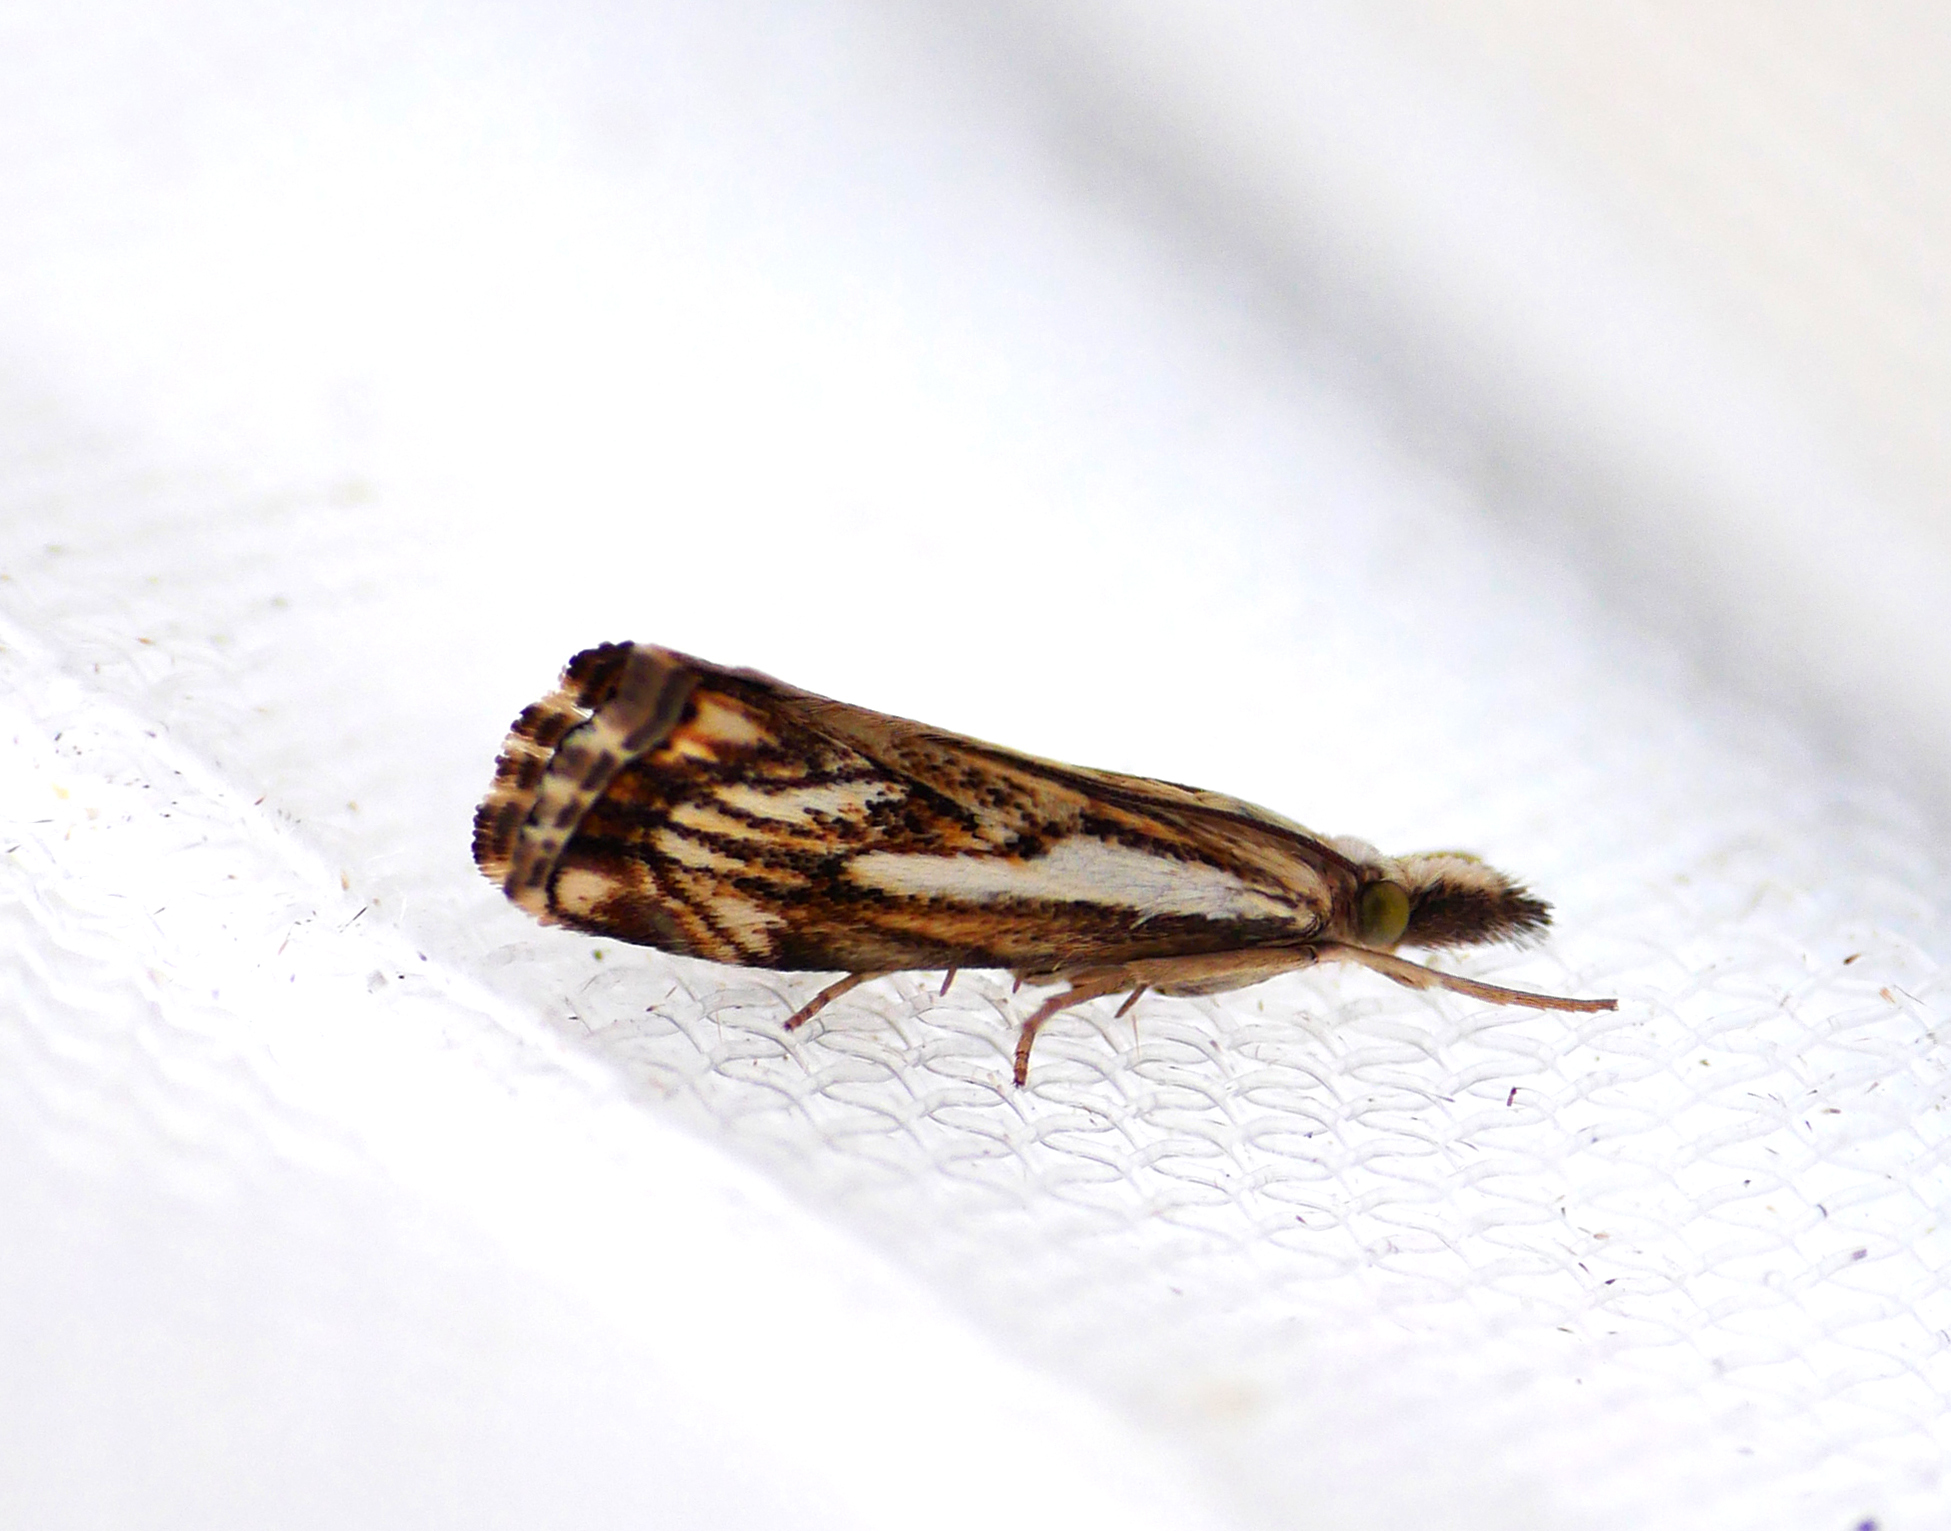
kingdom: Animalia
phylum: Arthropoda
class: Insecta
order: Lepidoptera
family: Crambidae
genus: Catoptria
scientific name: Catoptria falsella
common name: Chequered grass-veneer
